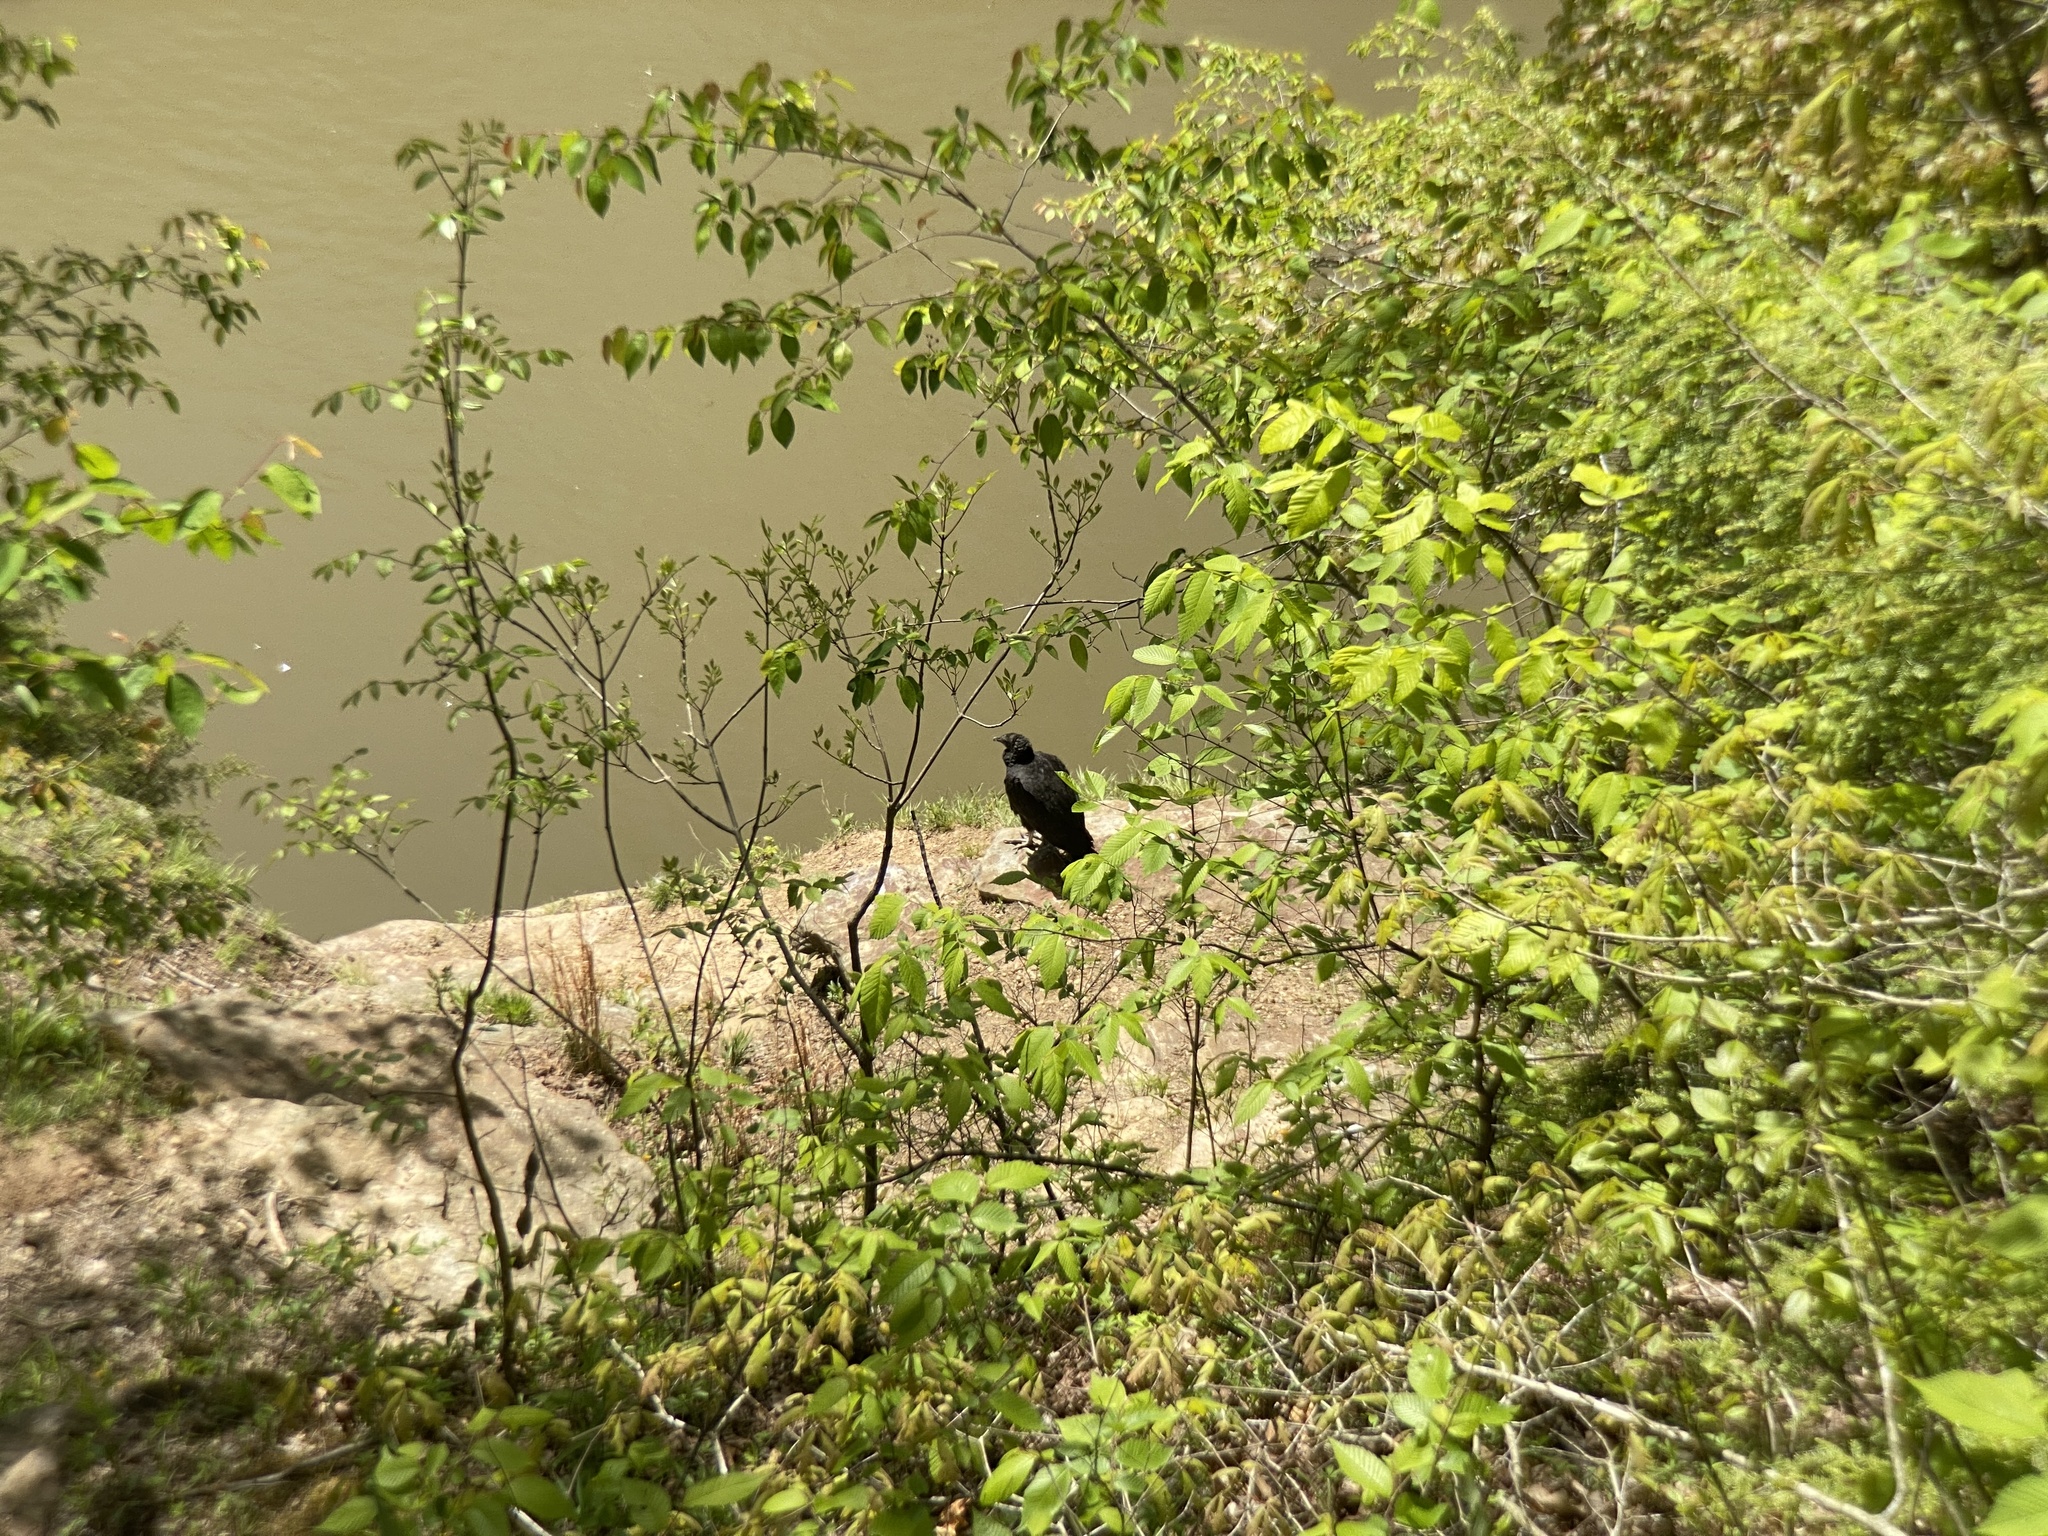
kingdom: Animalia
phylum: Chordata
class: Aves
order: Accipitriformes
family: Cathartidae
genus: Coragyps
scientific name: Coragyps atratus
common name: Black vulture
